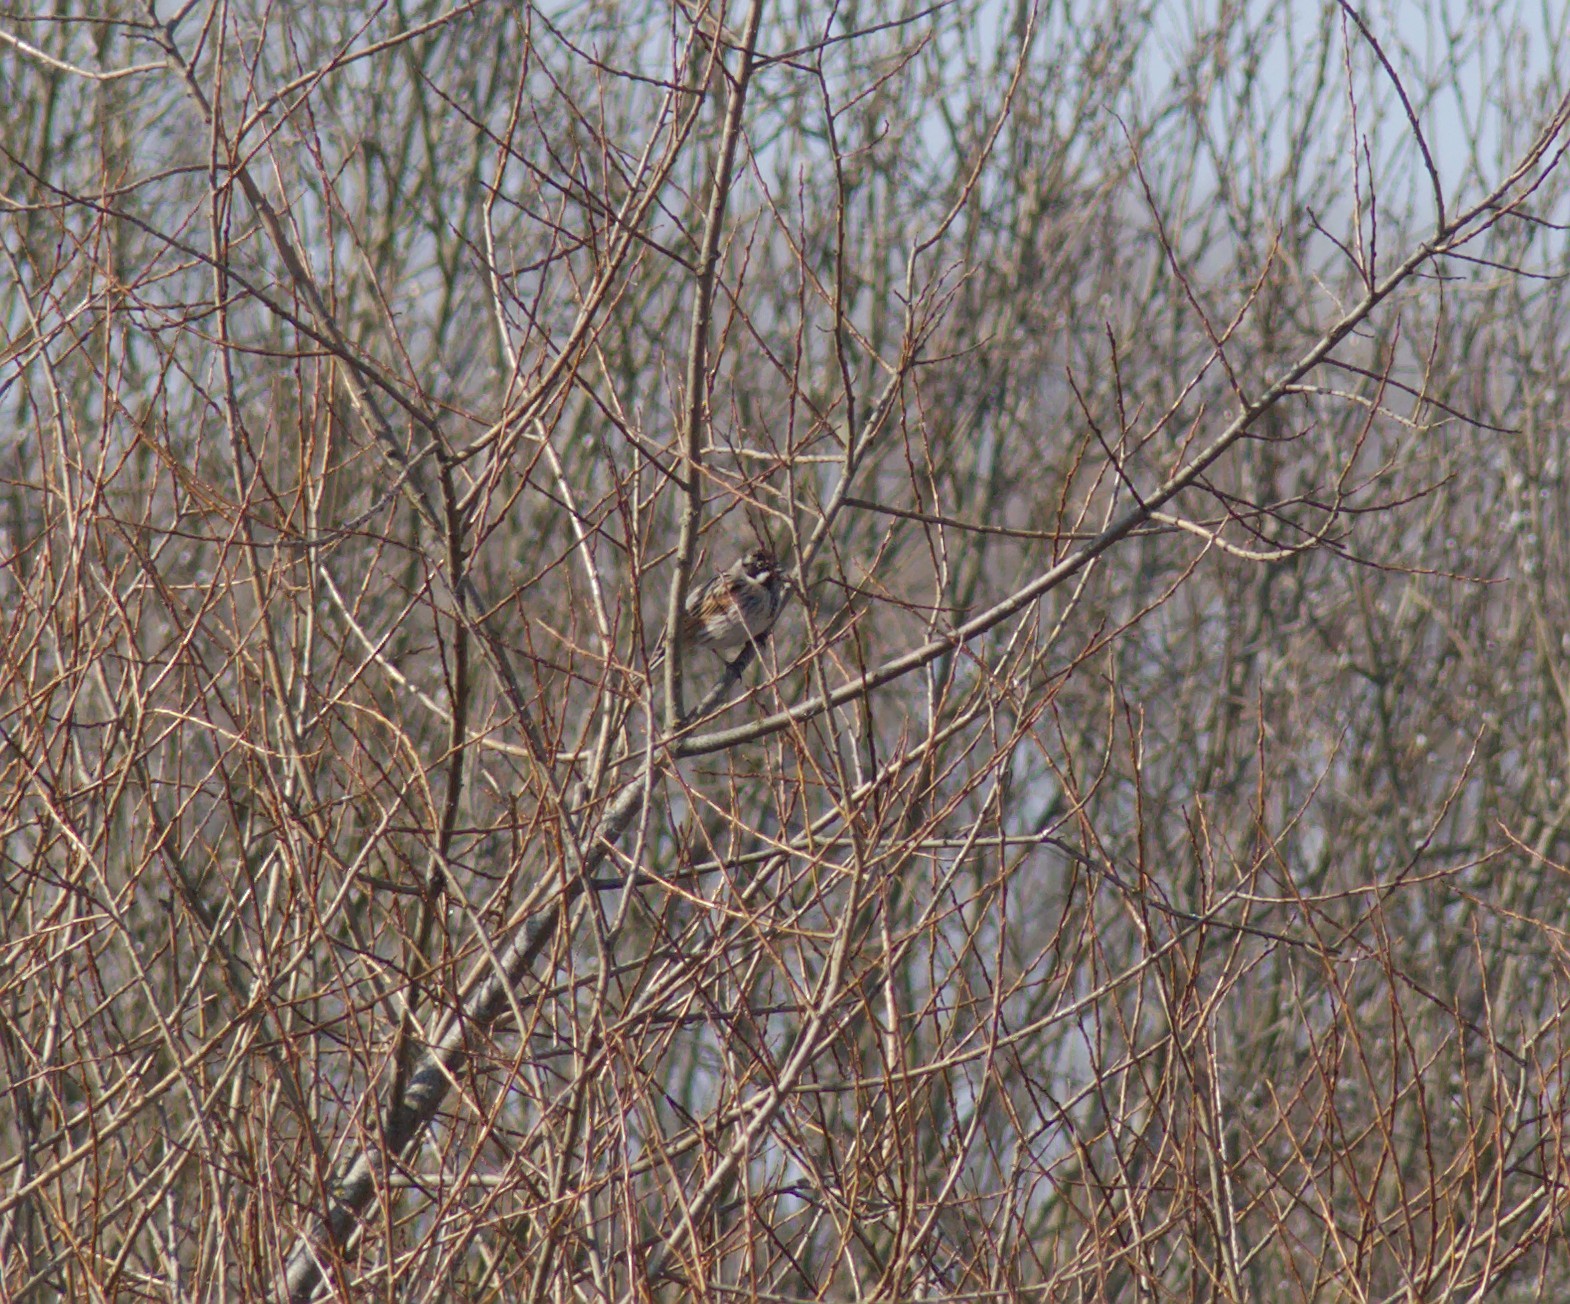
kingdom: Animalia
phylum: Chordata
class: Aves
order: Passeriformes
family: Emberizidae
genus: Emberiza
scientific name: Emberiza schoeniclus
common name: Reed bunting
